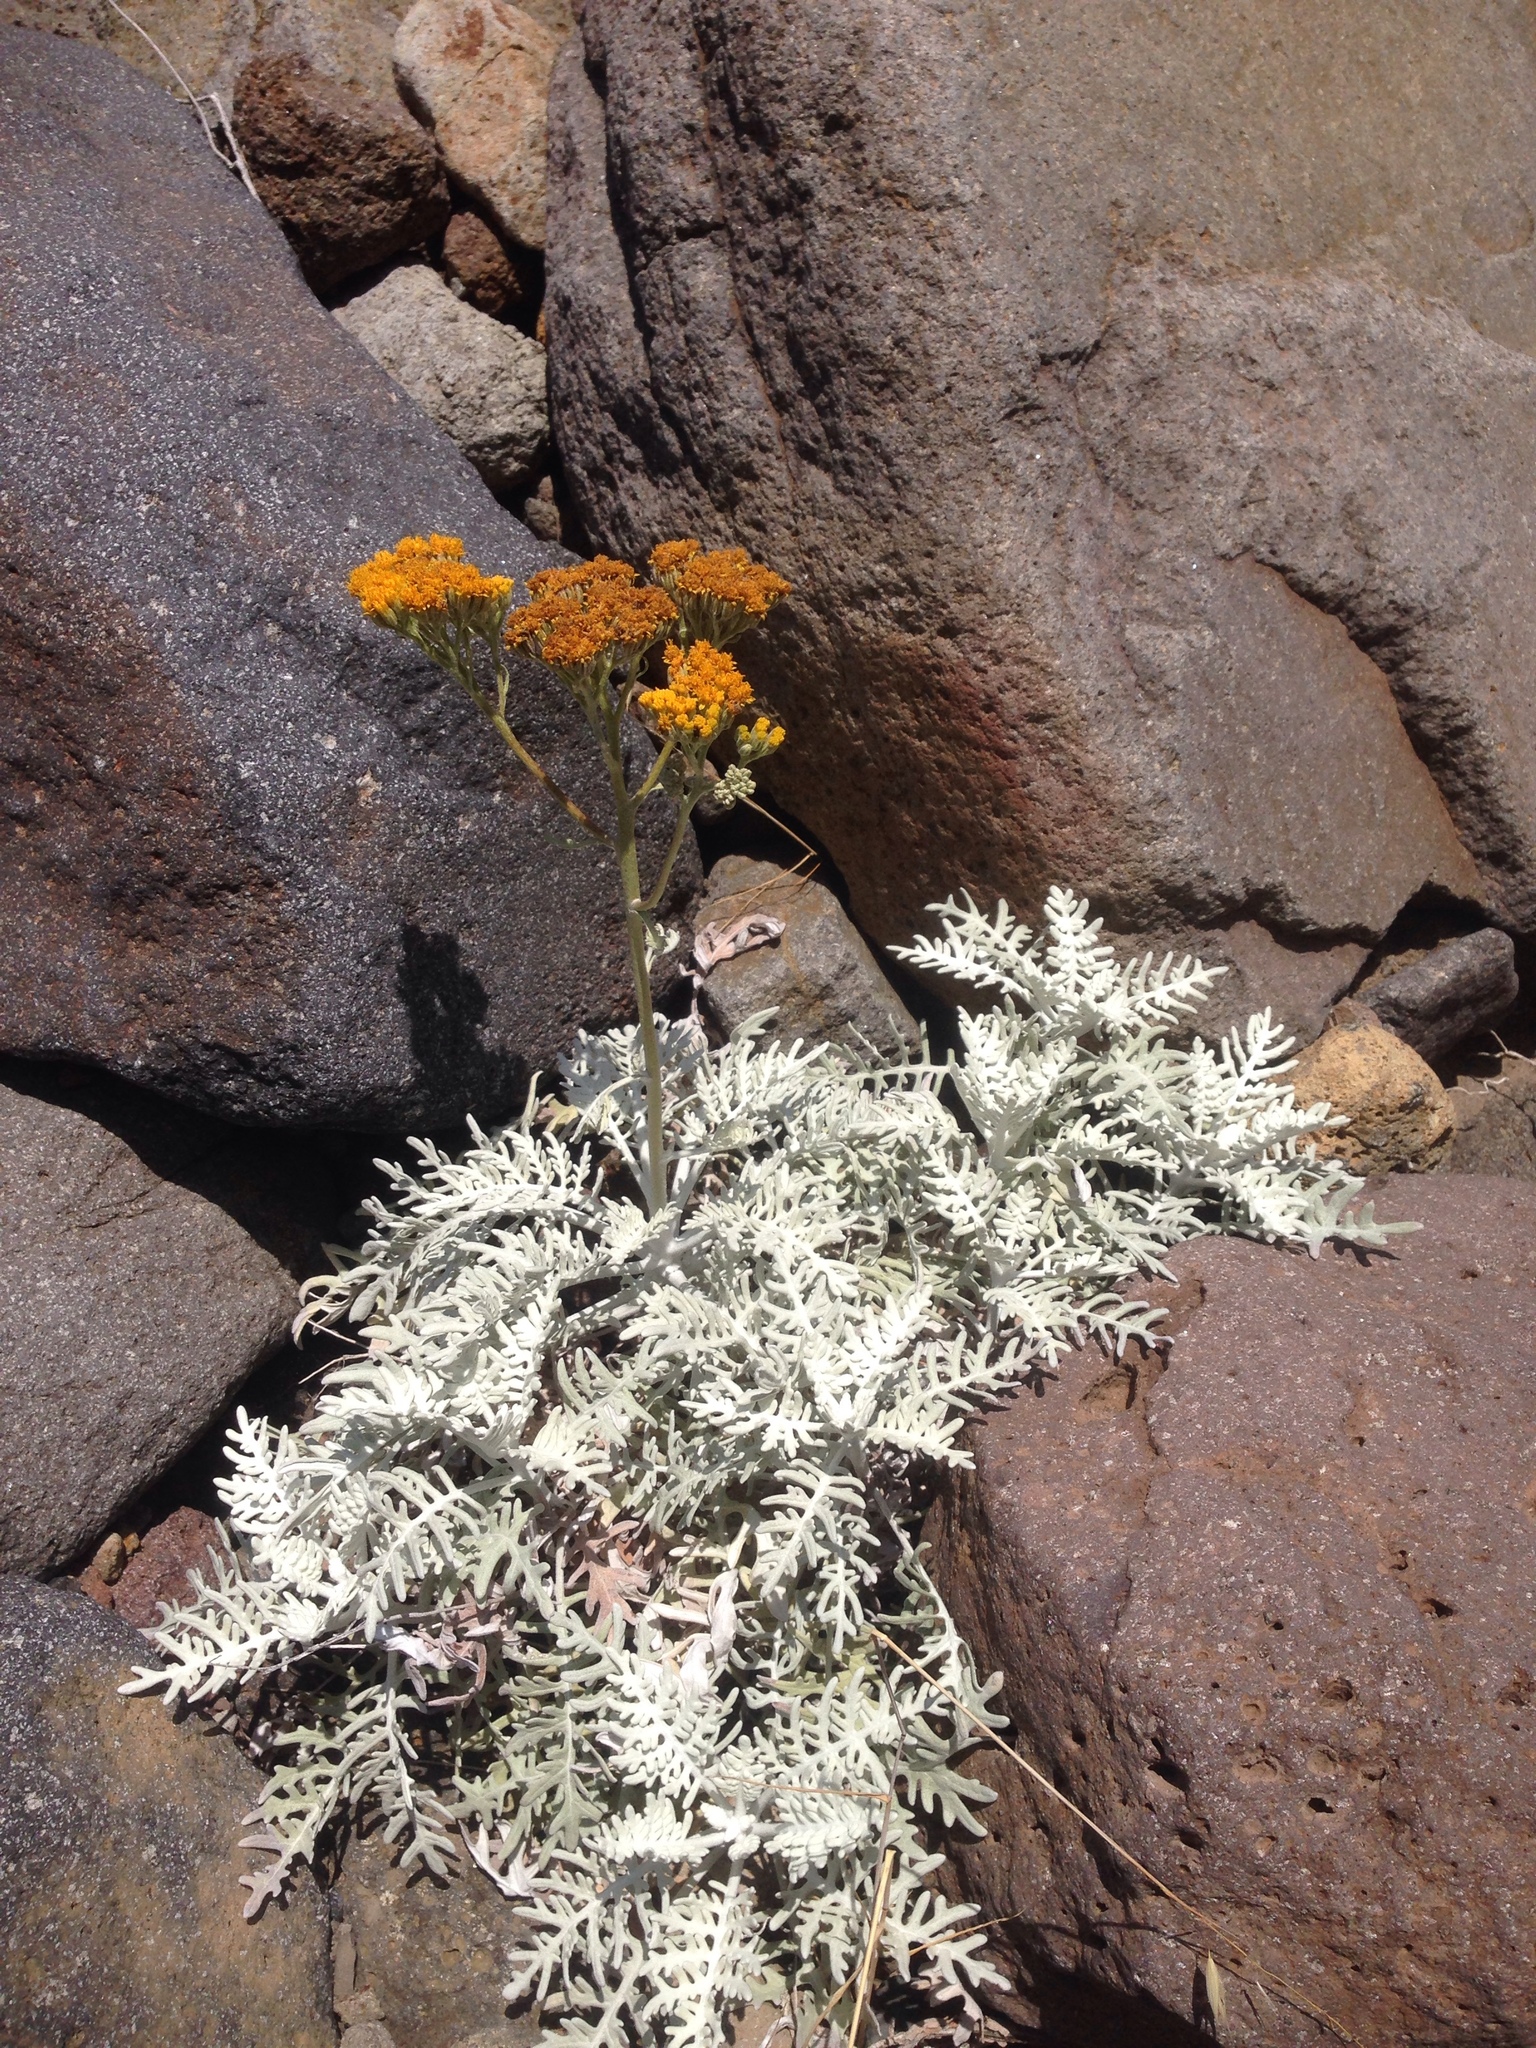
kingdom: Plantae
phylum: Tracheophyta
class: Magnoliopsida
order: Asterales
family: Asteraceae
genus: Constancea
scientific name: Constancea nevinii
